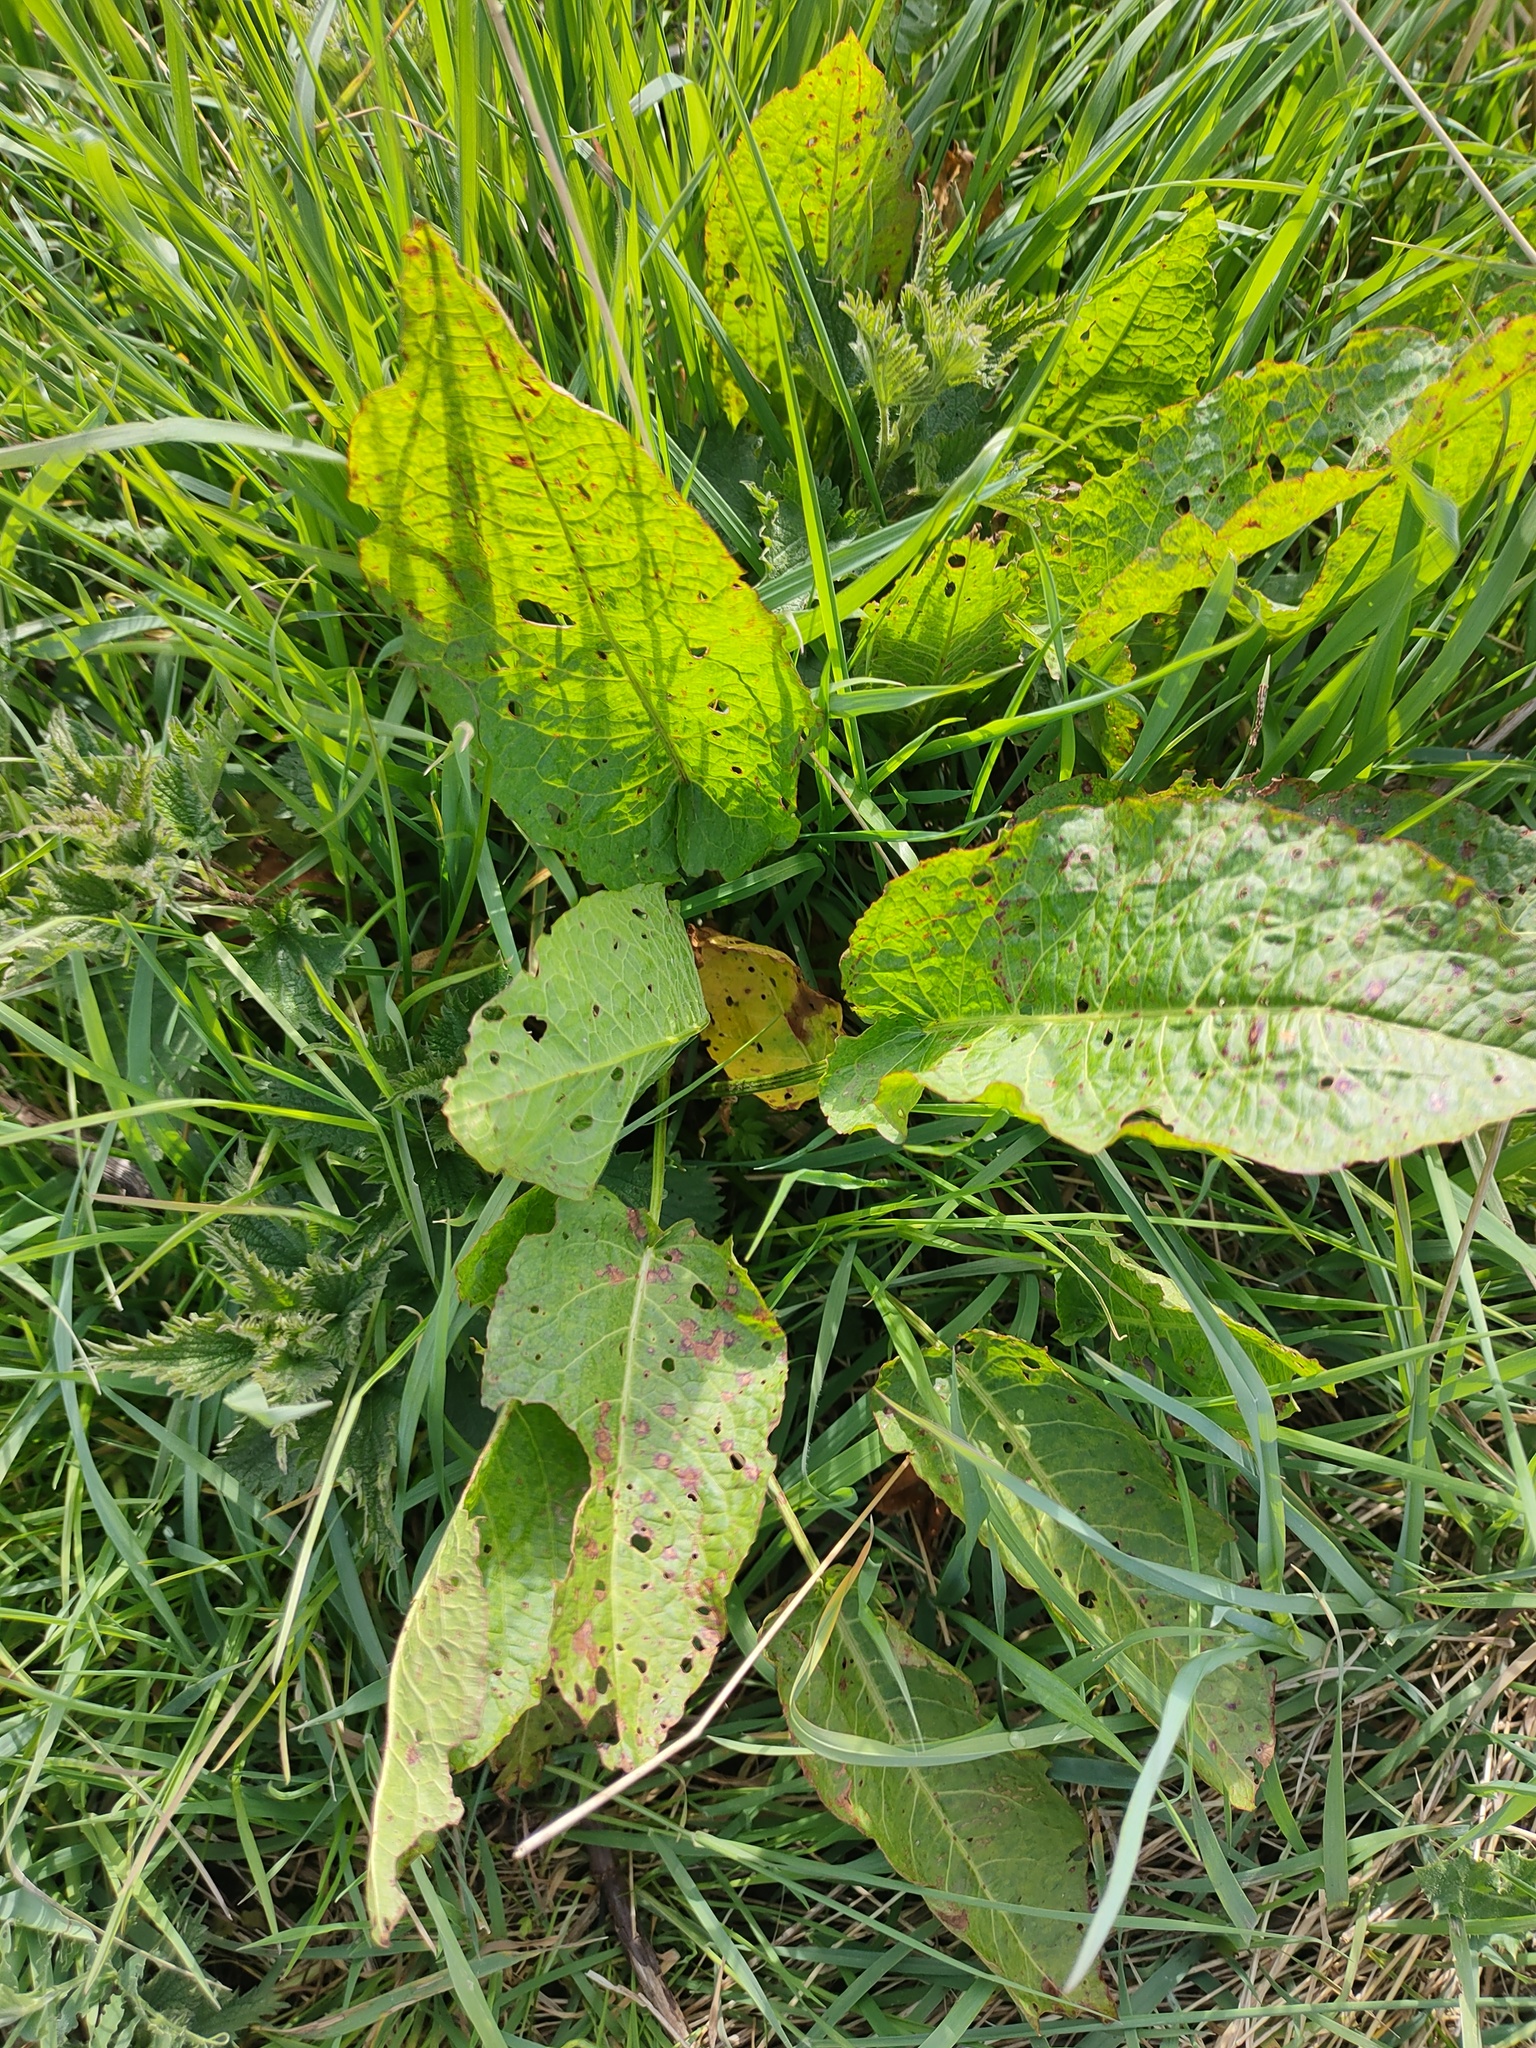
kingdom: Plantae
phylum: Tracheophyta
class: Magnoliopsida
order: Caryophyllales
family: Polygonaceae
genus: Rumex
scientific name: Rumex obtusifolius
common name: Bitter dock
